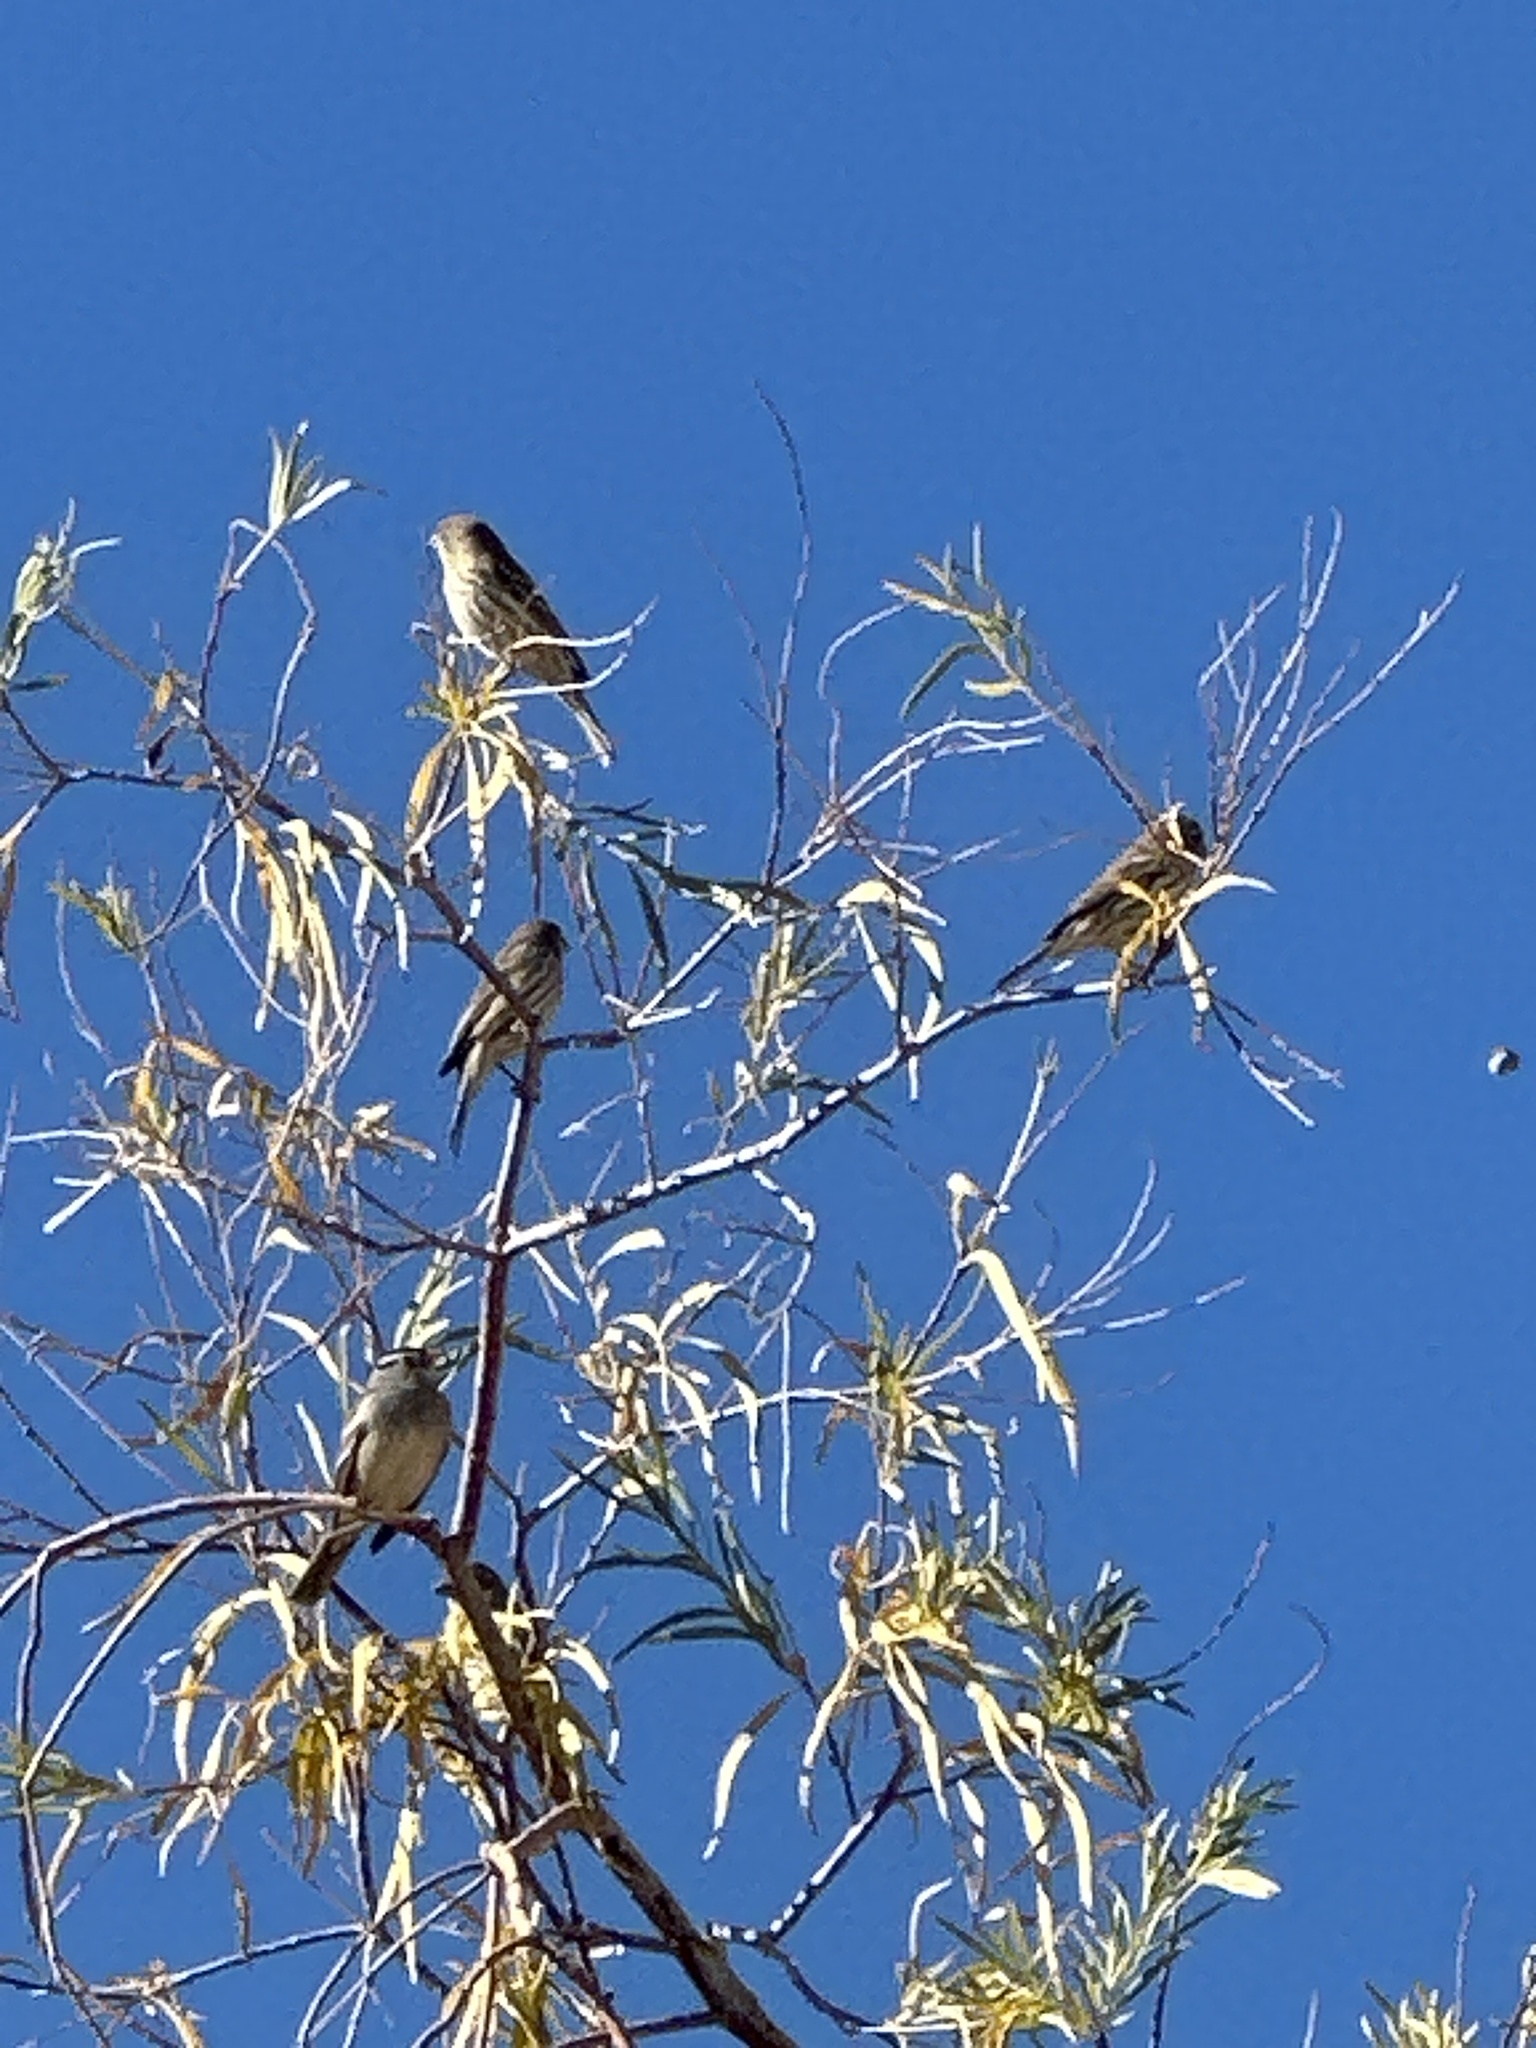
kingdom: Animalia
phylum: Chordata
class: Aves
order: Passeriformes
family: Fringillidae
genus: Haemorhous
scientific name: Haemorhous mexicanus
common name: House finch
